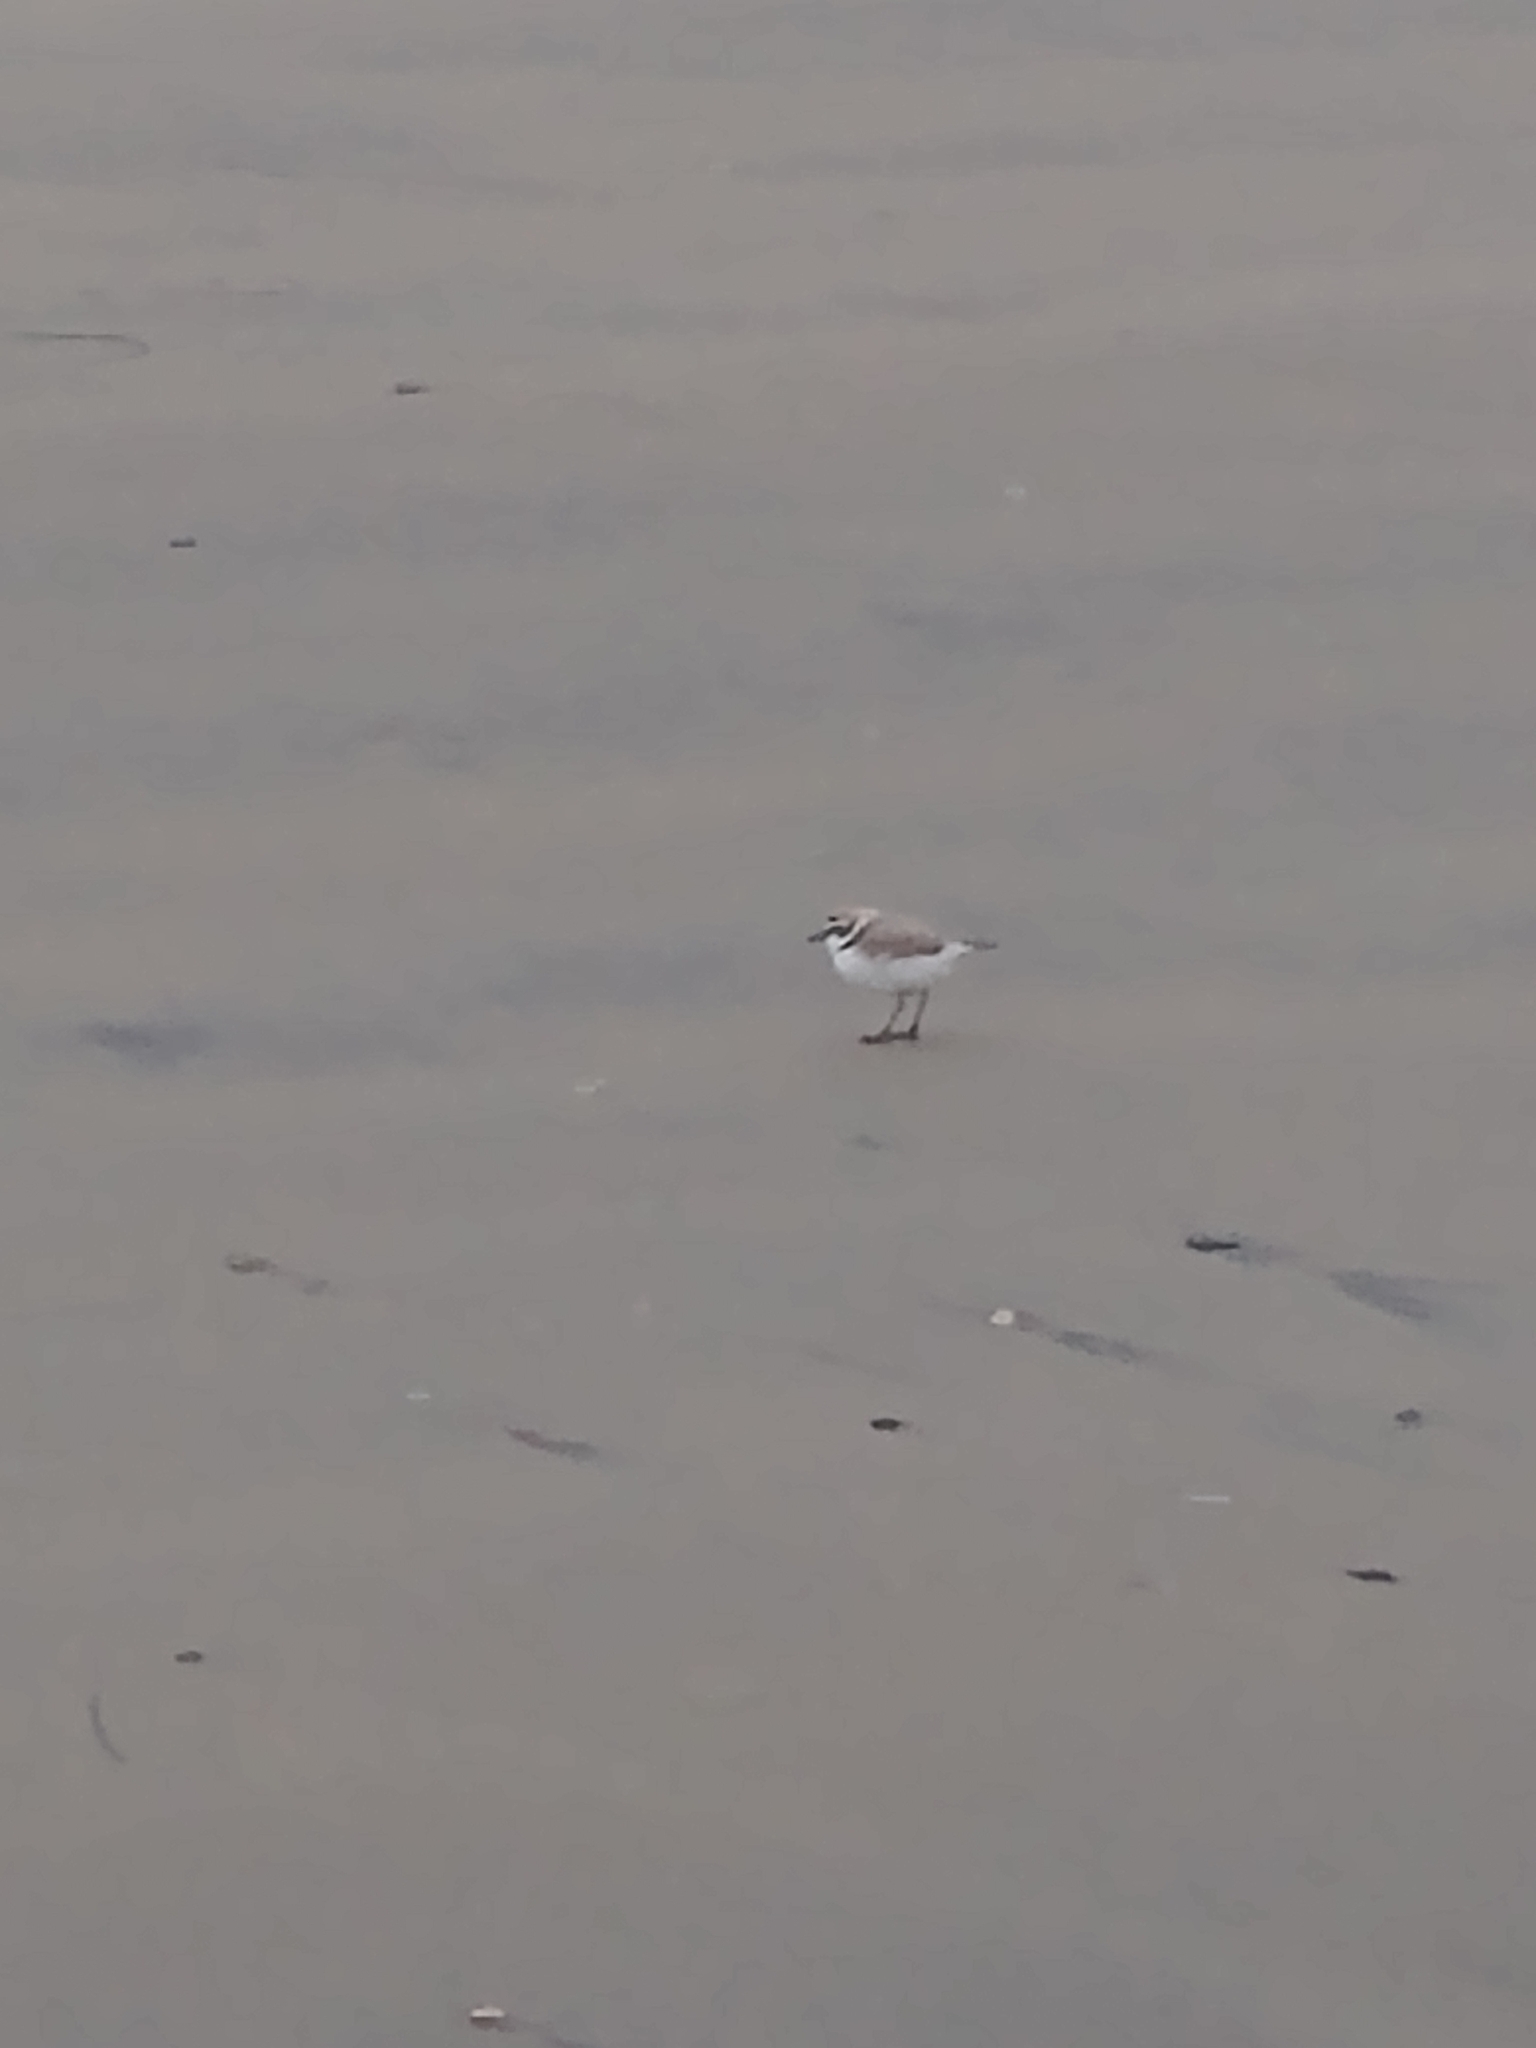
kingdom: Animalia
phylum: Chordata
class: Aves
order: Charadriiformes
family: Charadriidae
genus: Anarhynchus
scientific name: Anarhynchus
